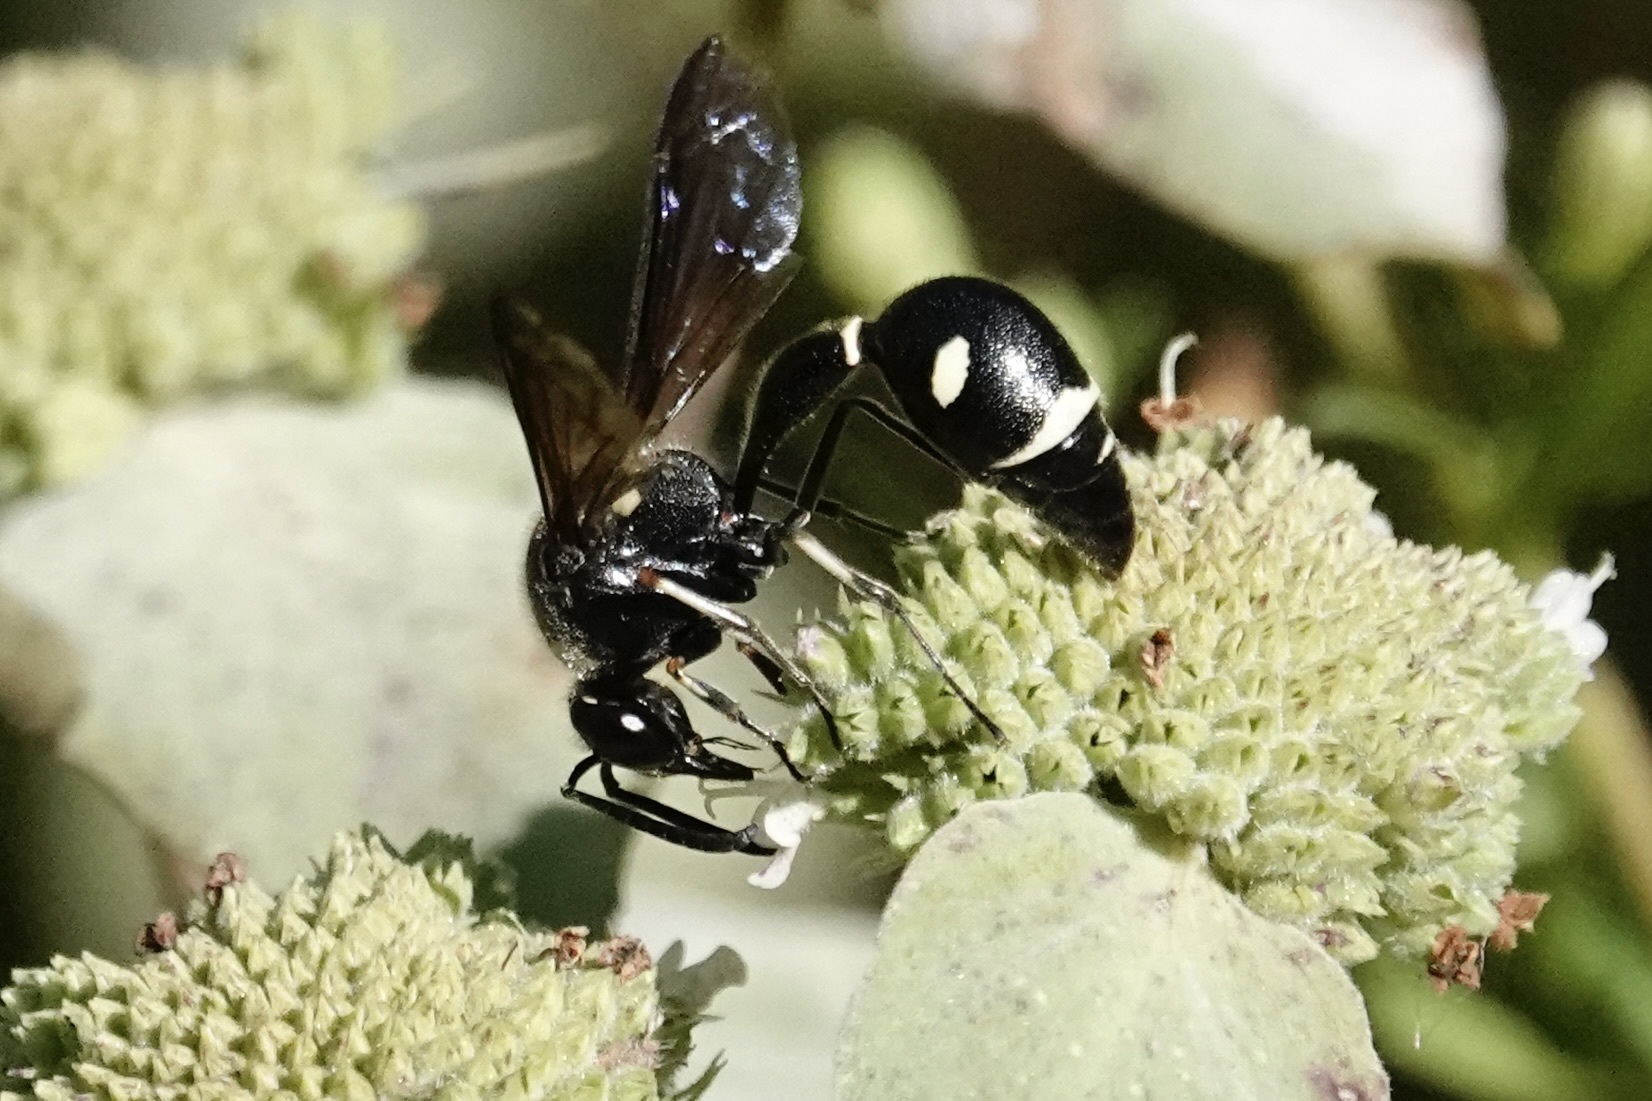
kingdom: Animalia
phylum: Arthropoda
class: Insecta
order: Hymenoptera
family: Vespidae
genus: Eumenes
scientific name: Eumenes fraternus
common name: Fraternal potter wasp
